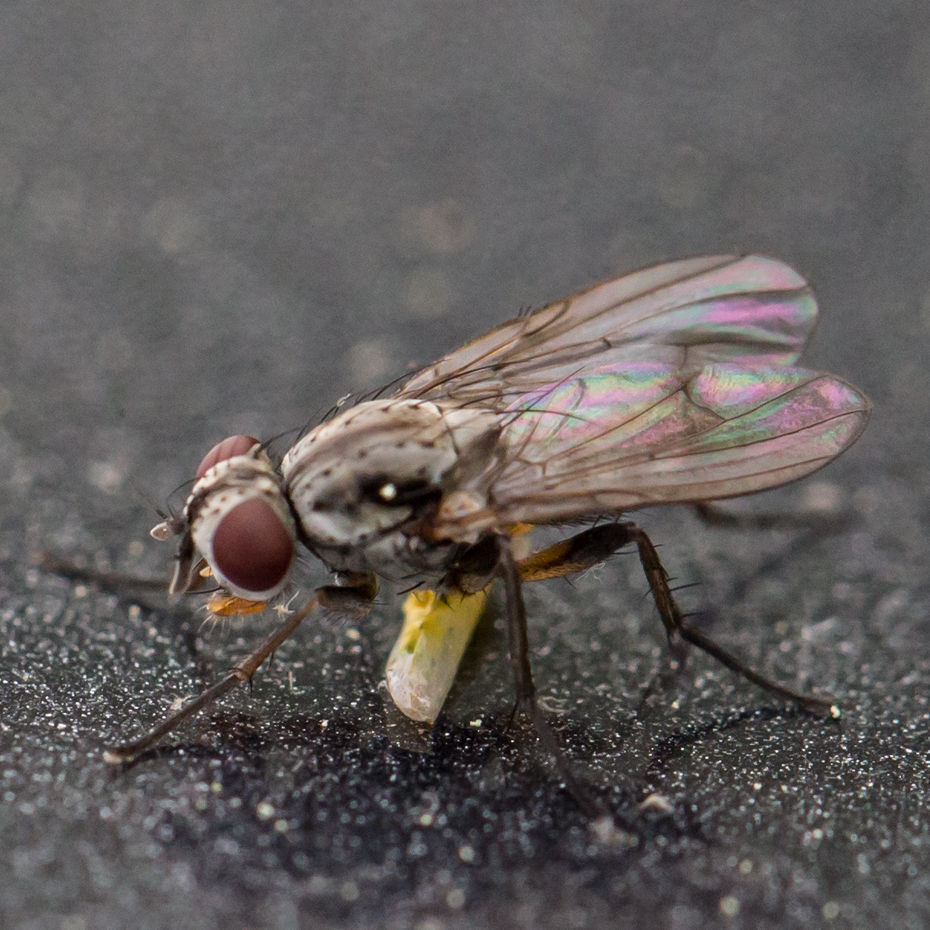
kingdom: Animalia
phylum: Arthropoda
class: Insecta
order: Diptera
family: Anthomyiidae
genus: Eustalomyia
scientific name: Eustalomyia vittipes
